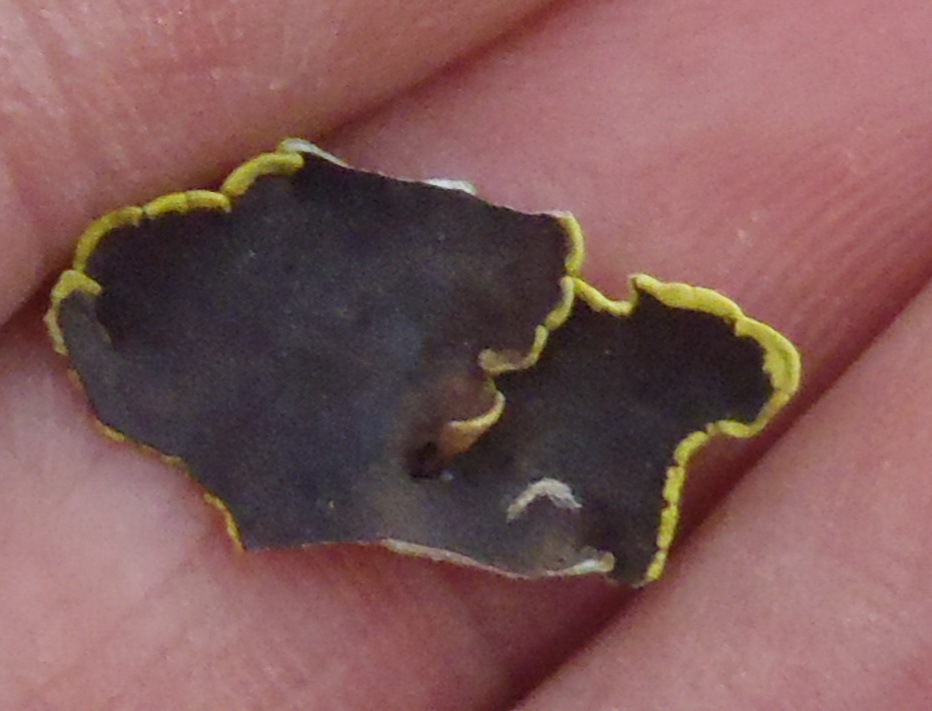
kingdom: Fungi
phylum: Ascomycota
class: Lecanoromycetes
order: Caliciales
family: Caliciaceae
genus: Dermatiscum
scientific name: Dermatiscum thunbergii
